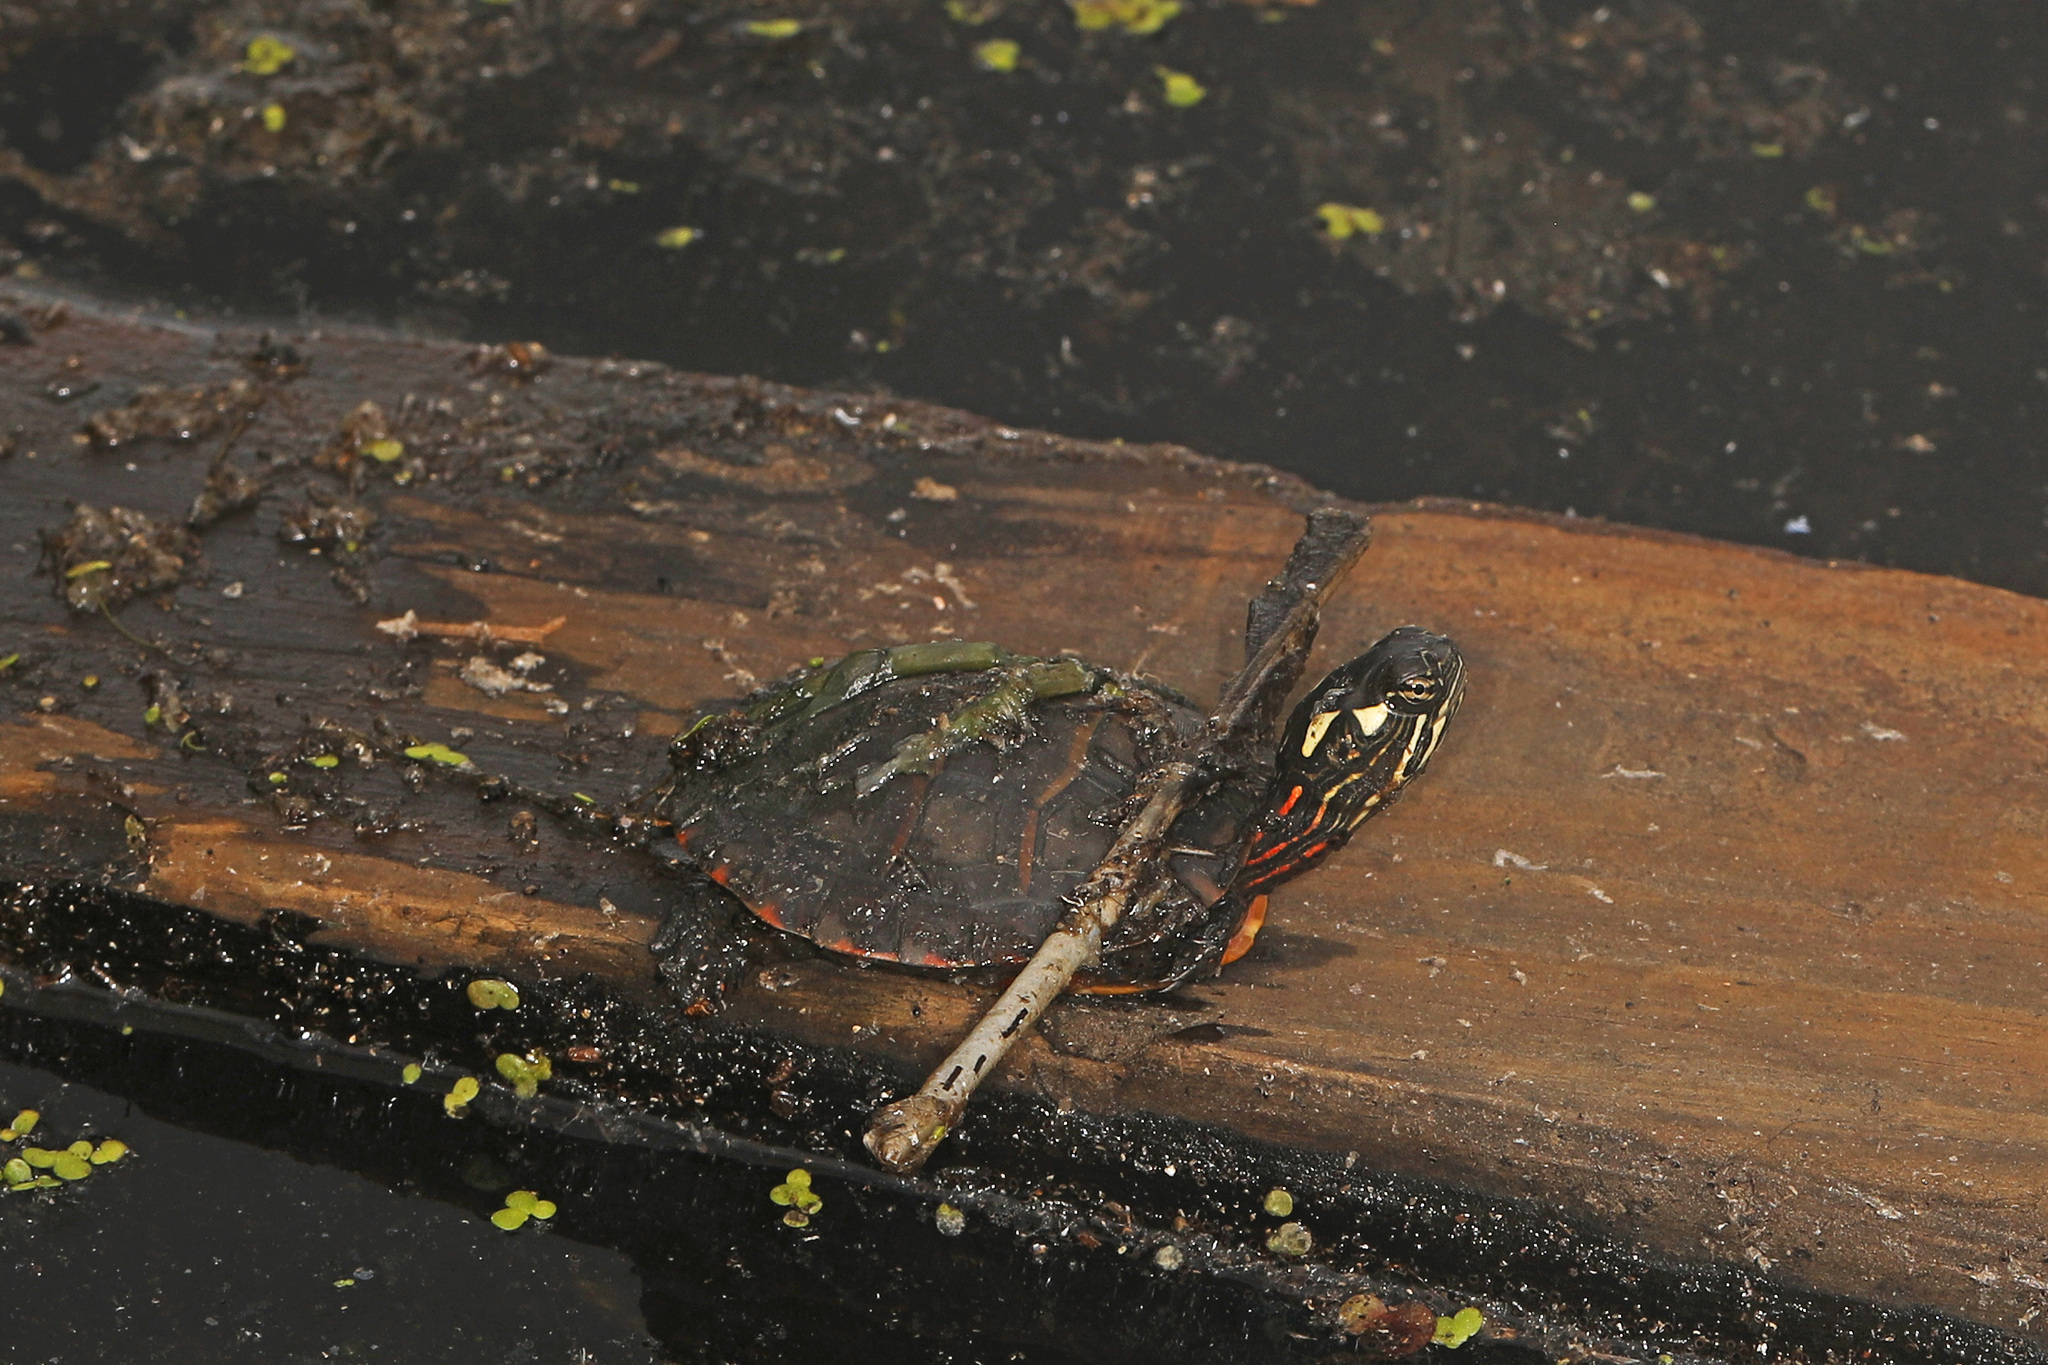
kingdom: Animalia
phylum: Chordata
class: Testudines
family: Emydidae
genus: Chrysemys
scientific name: Chrysemys picta
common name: Painted turtle
